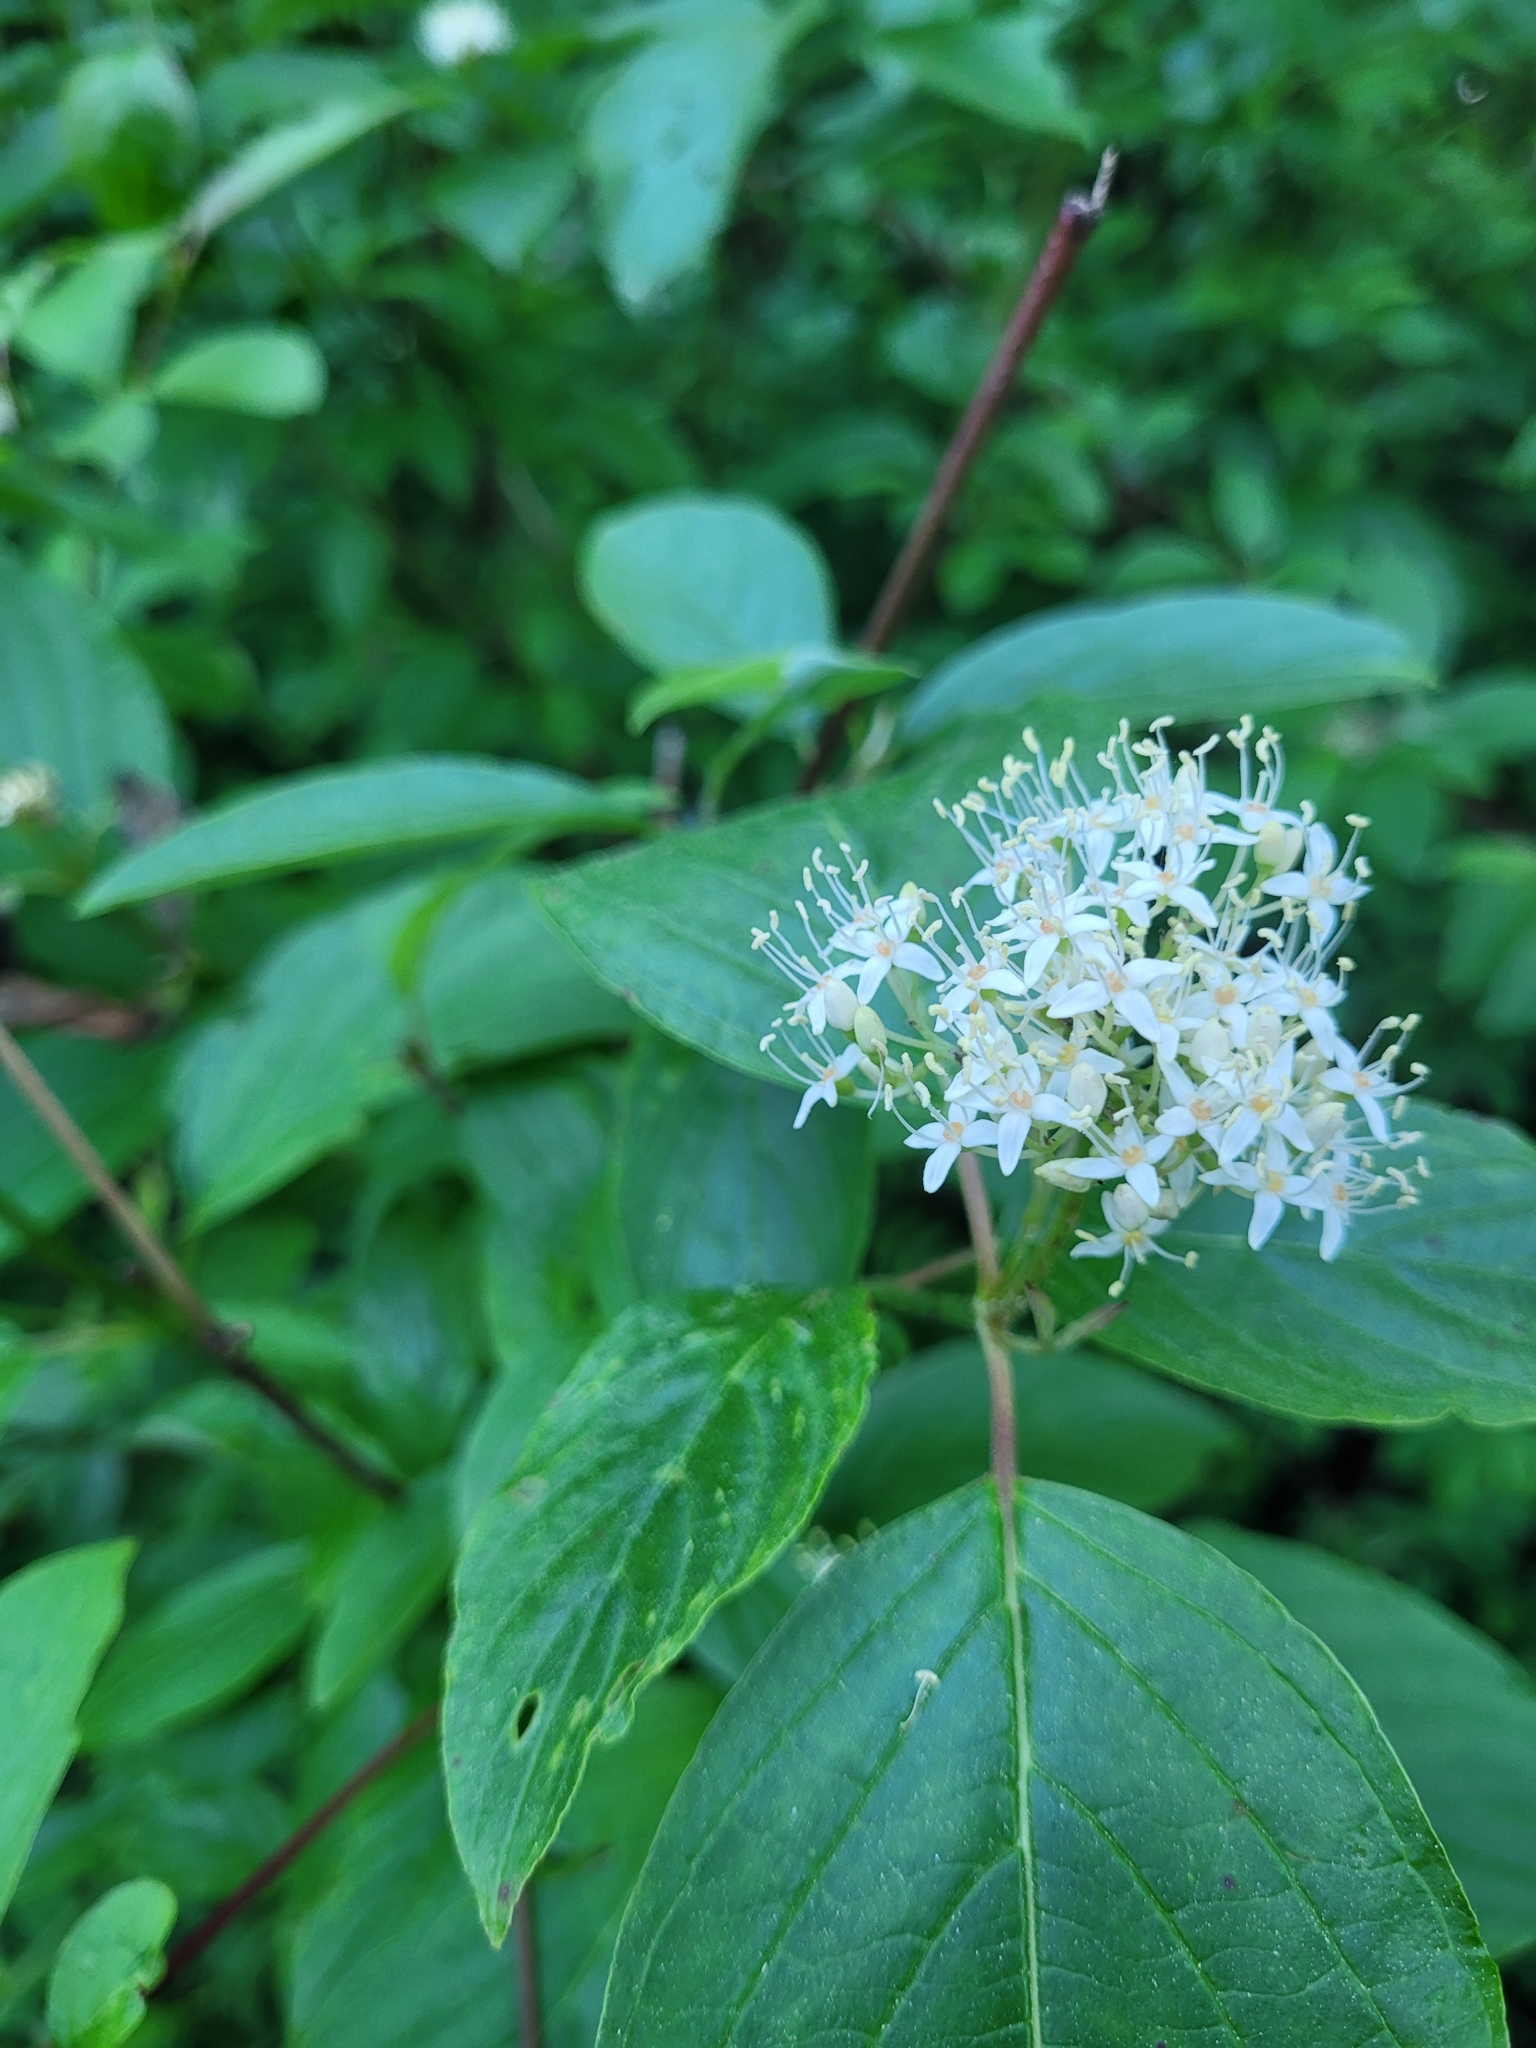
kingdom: Plantae
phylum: Tracheophyta
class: Magnoliopsida
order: Cornales
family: Cornaceae
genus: Cornus
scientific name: Cornus sericea
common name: Red-osier dogwood
